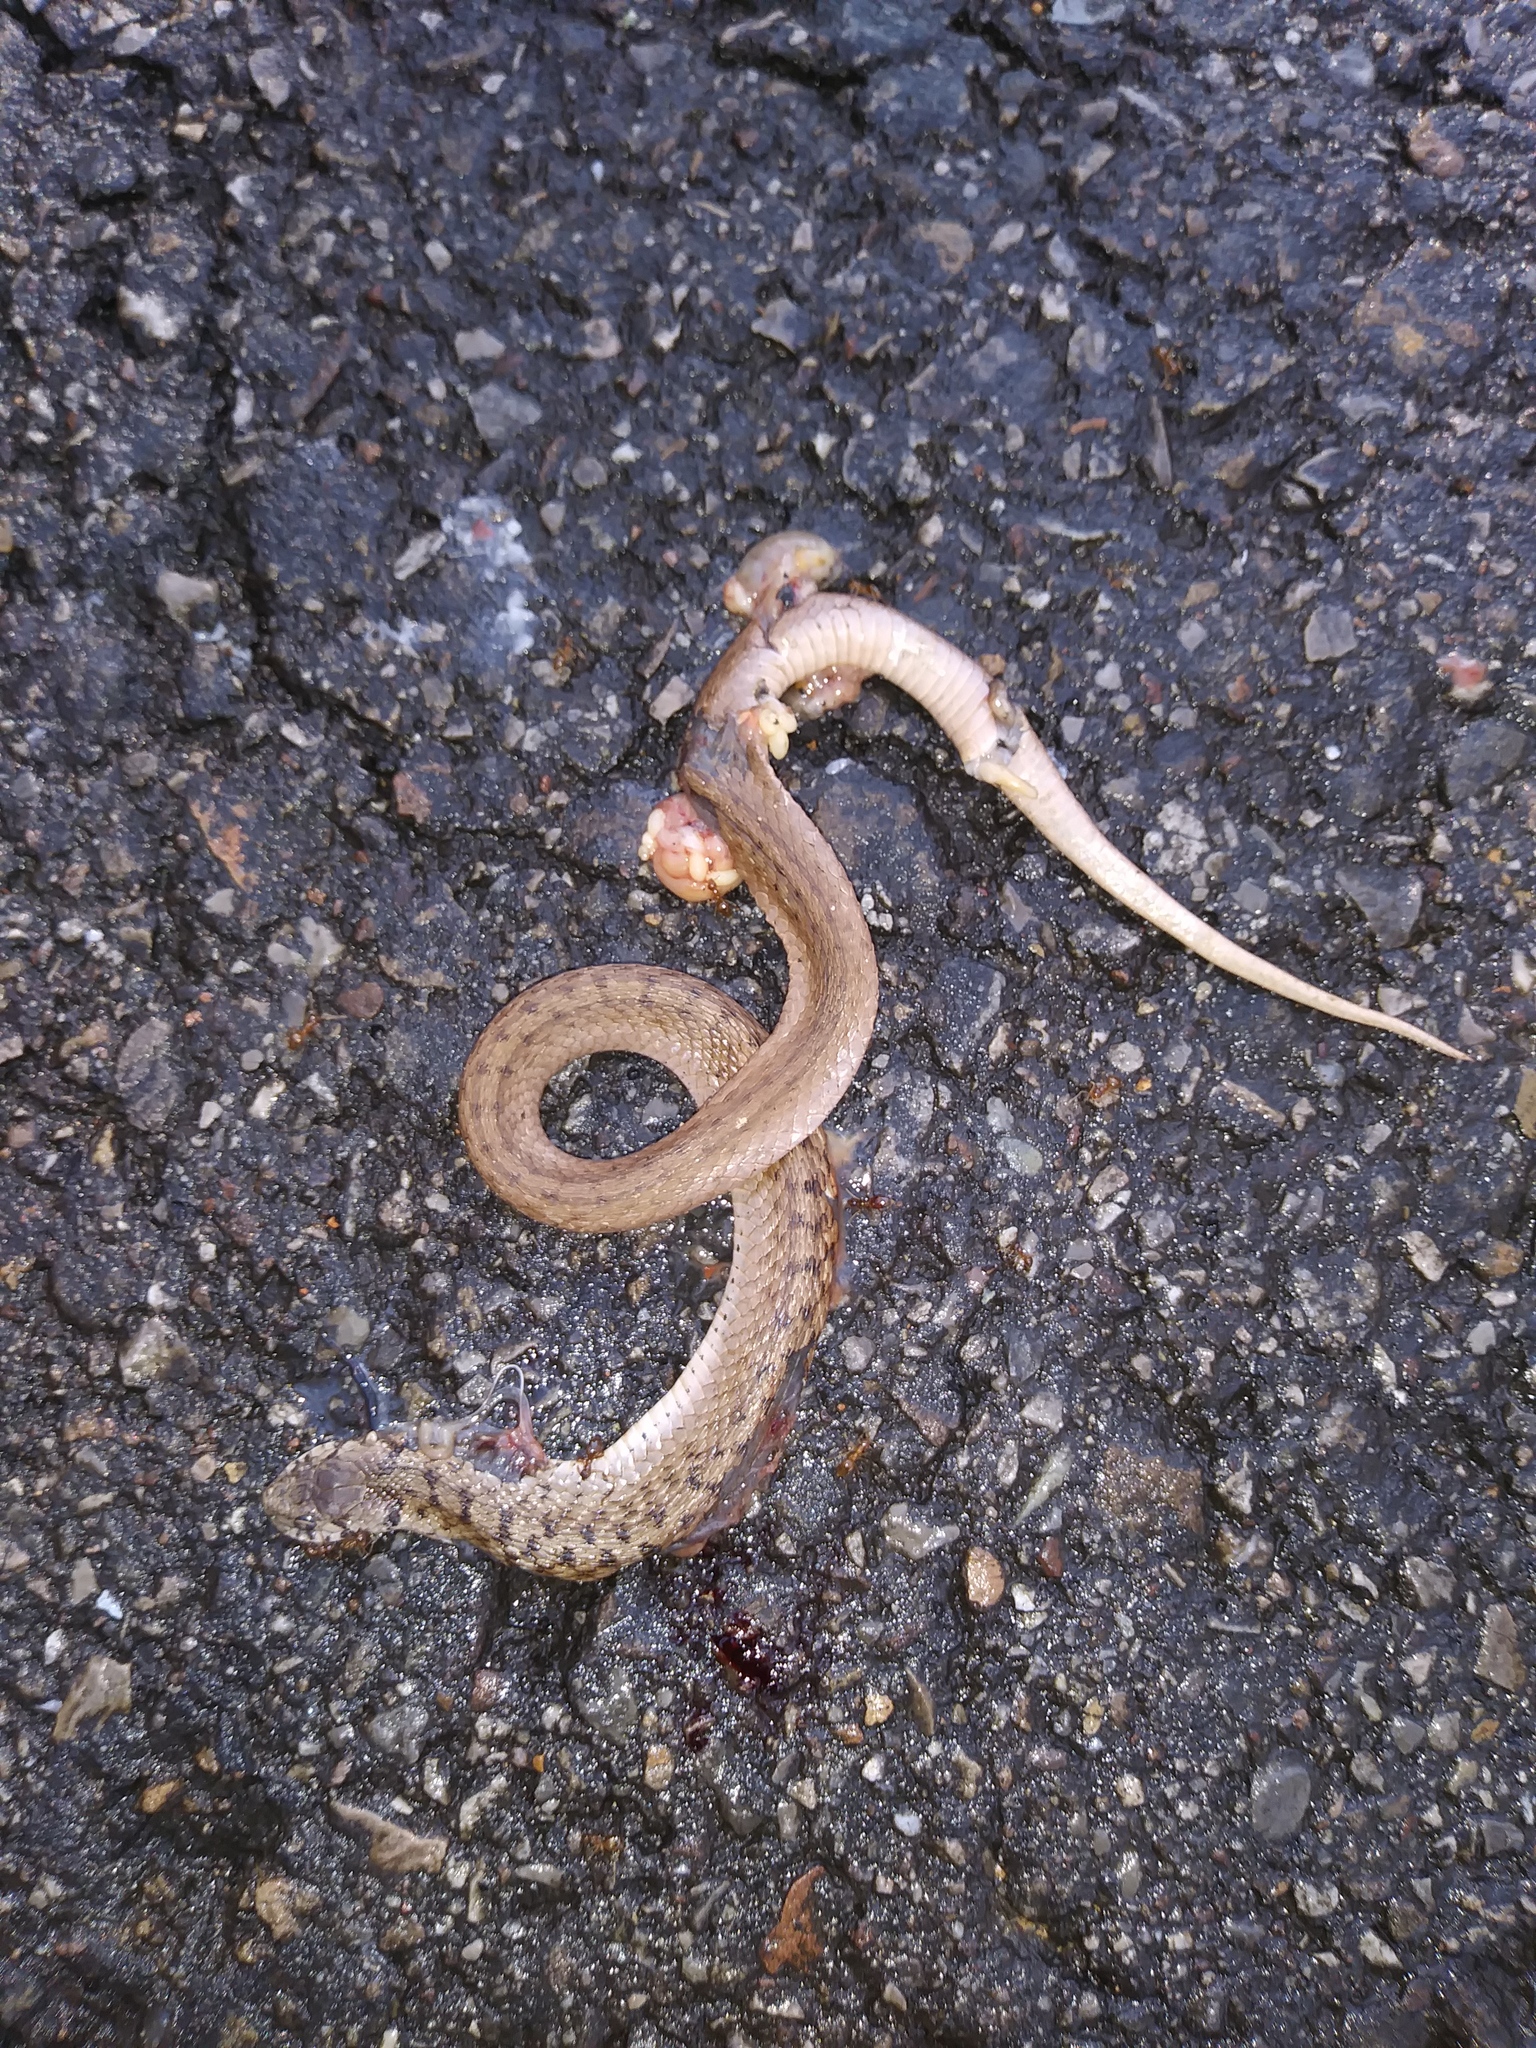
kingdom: Animalia
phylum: Chordata
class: Squamata
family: Colubridae
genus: Storeria
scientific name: Storeria dekayi
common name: (dekay’s) brown snake
